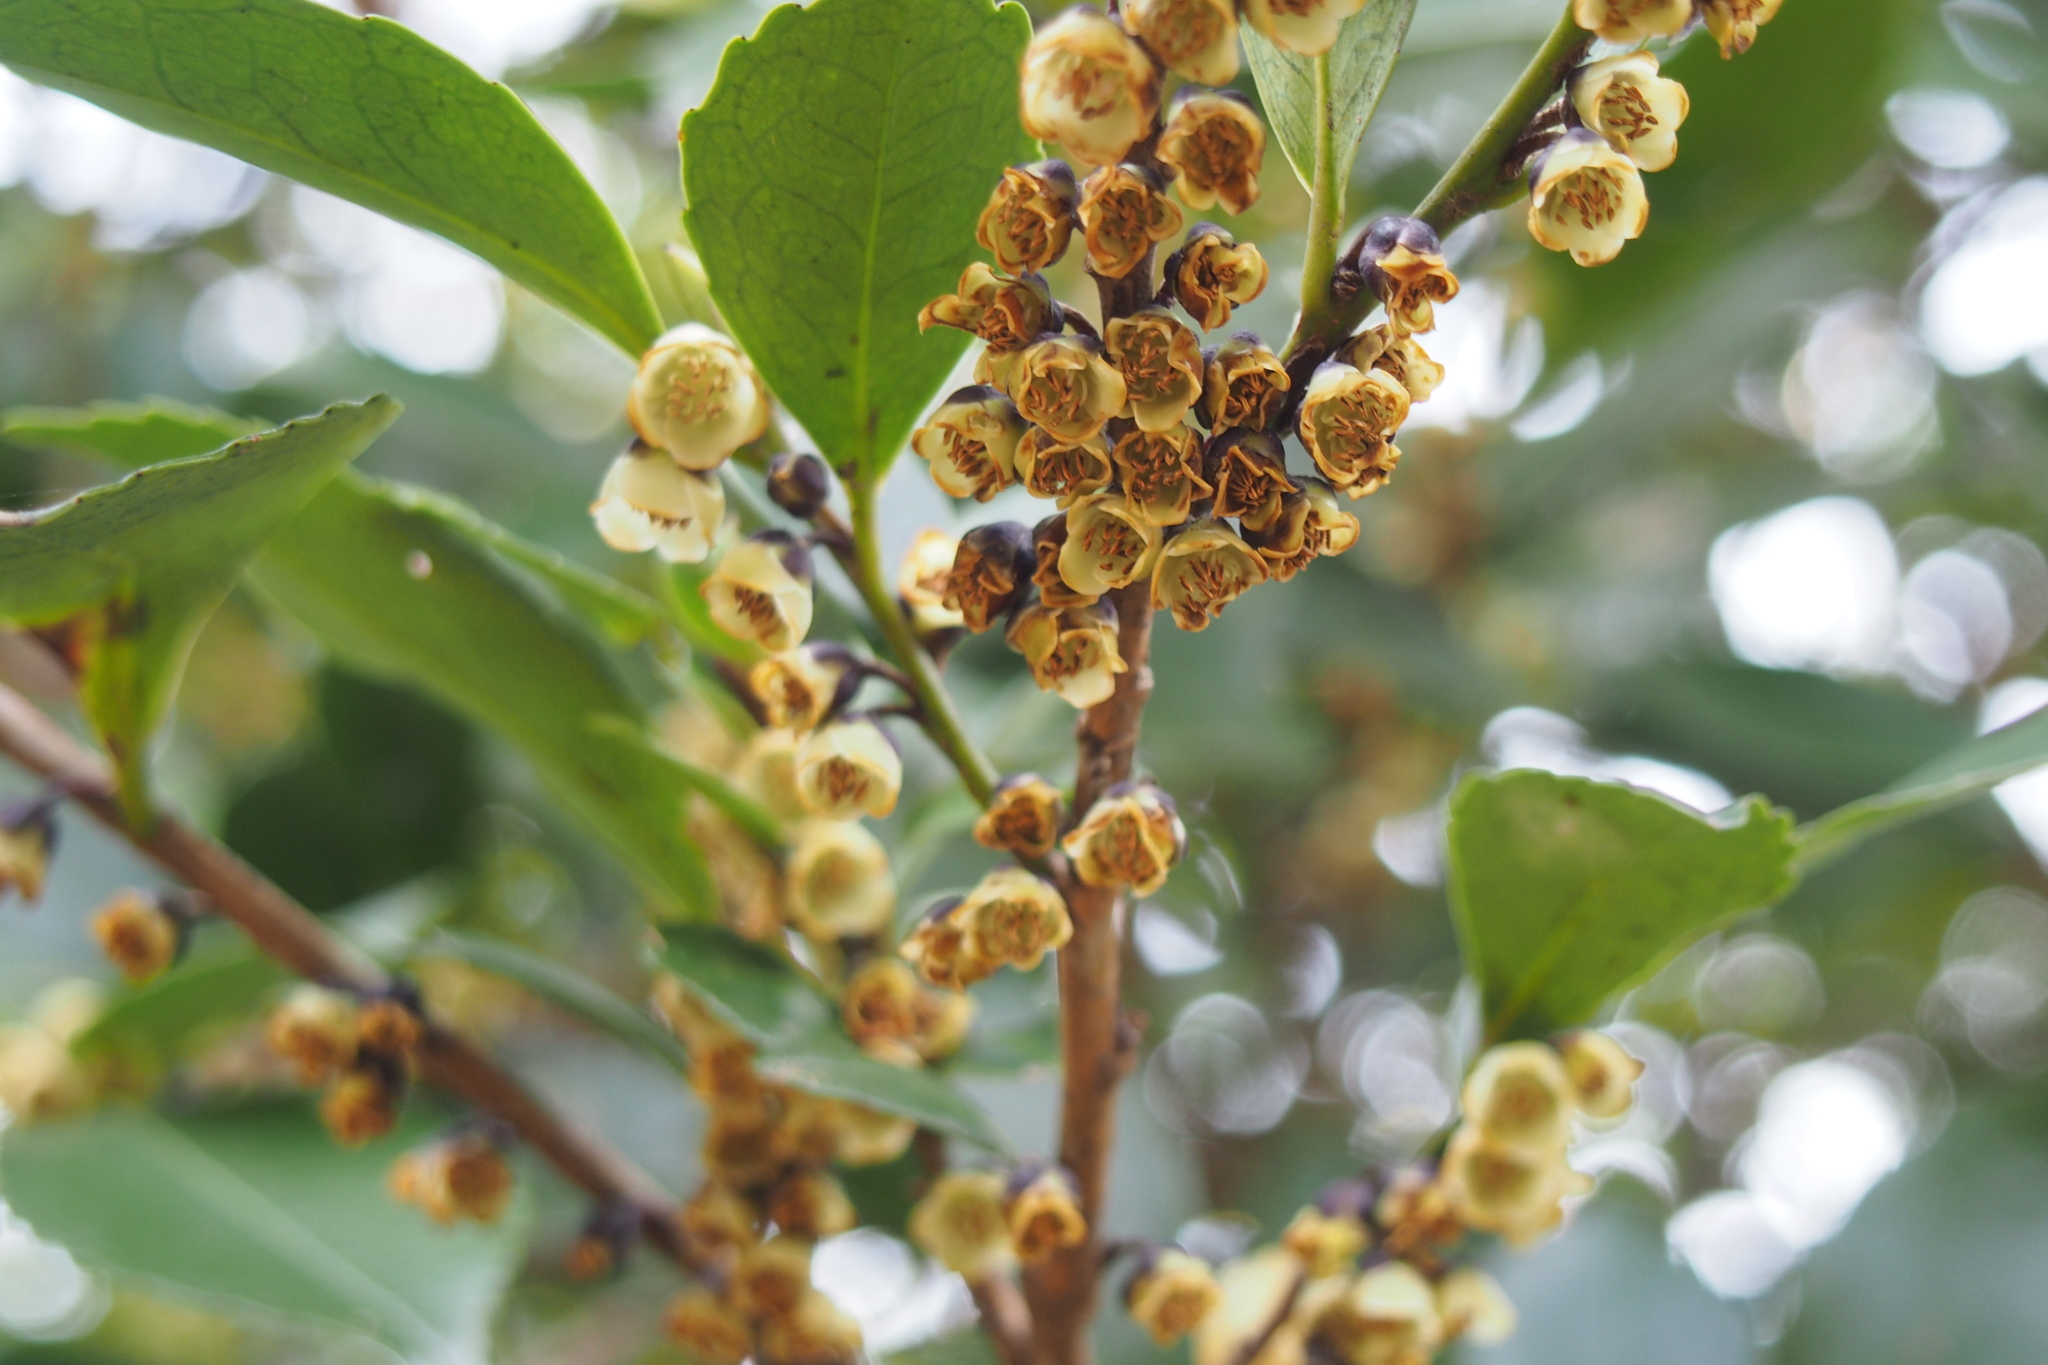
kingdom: Plantae
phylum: Tracheophyta
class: Magnoliopsida
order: Ericales
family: Pentaphylacaceae
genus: Eurya
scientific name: Eurya japonica
